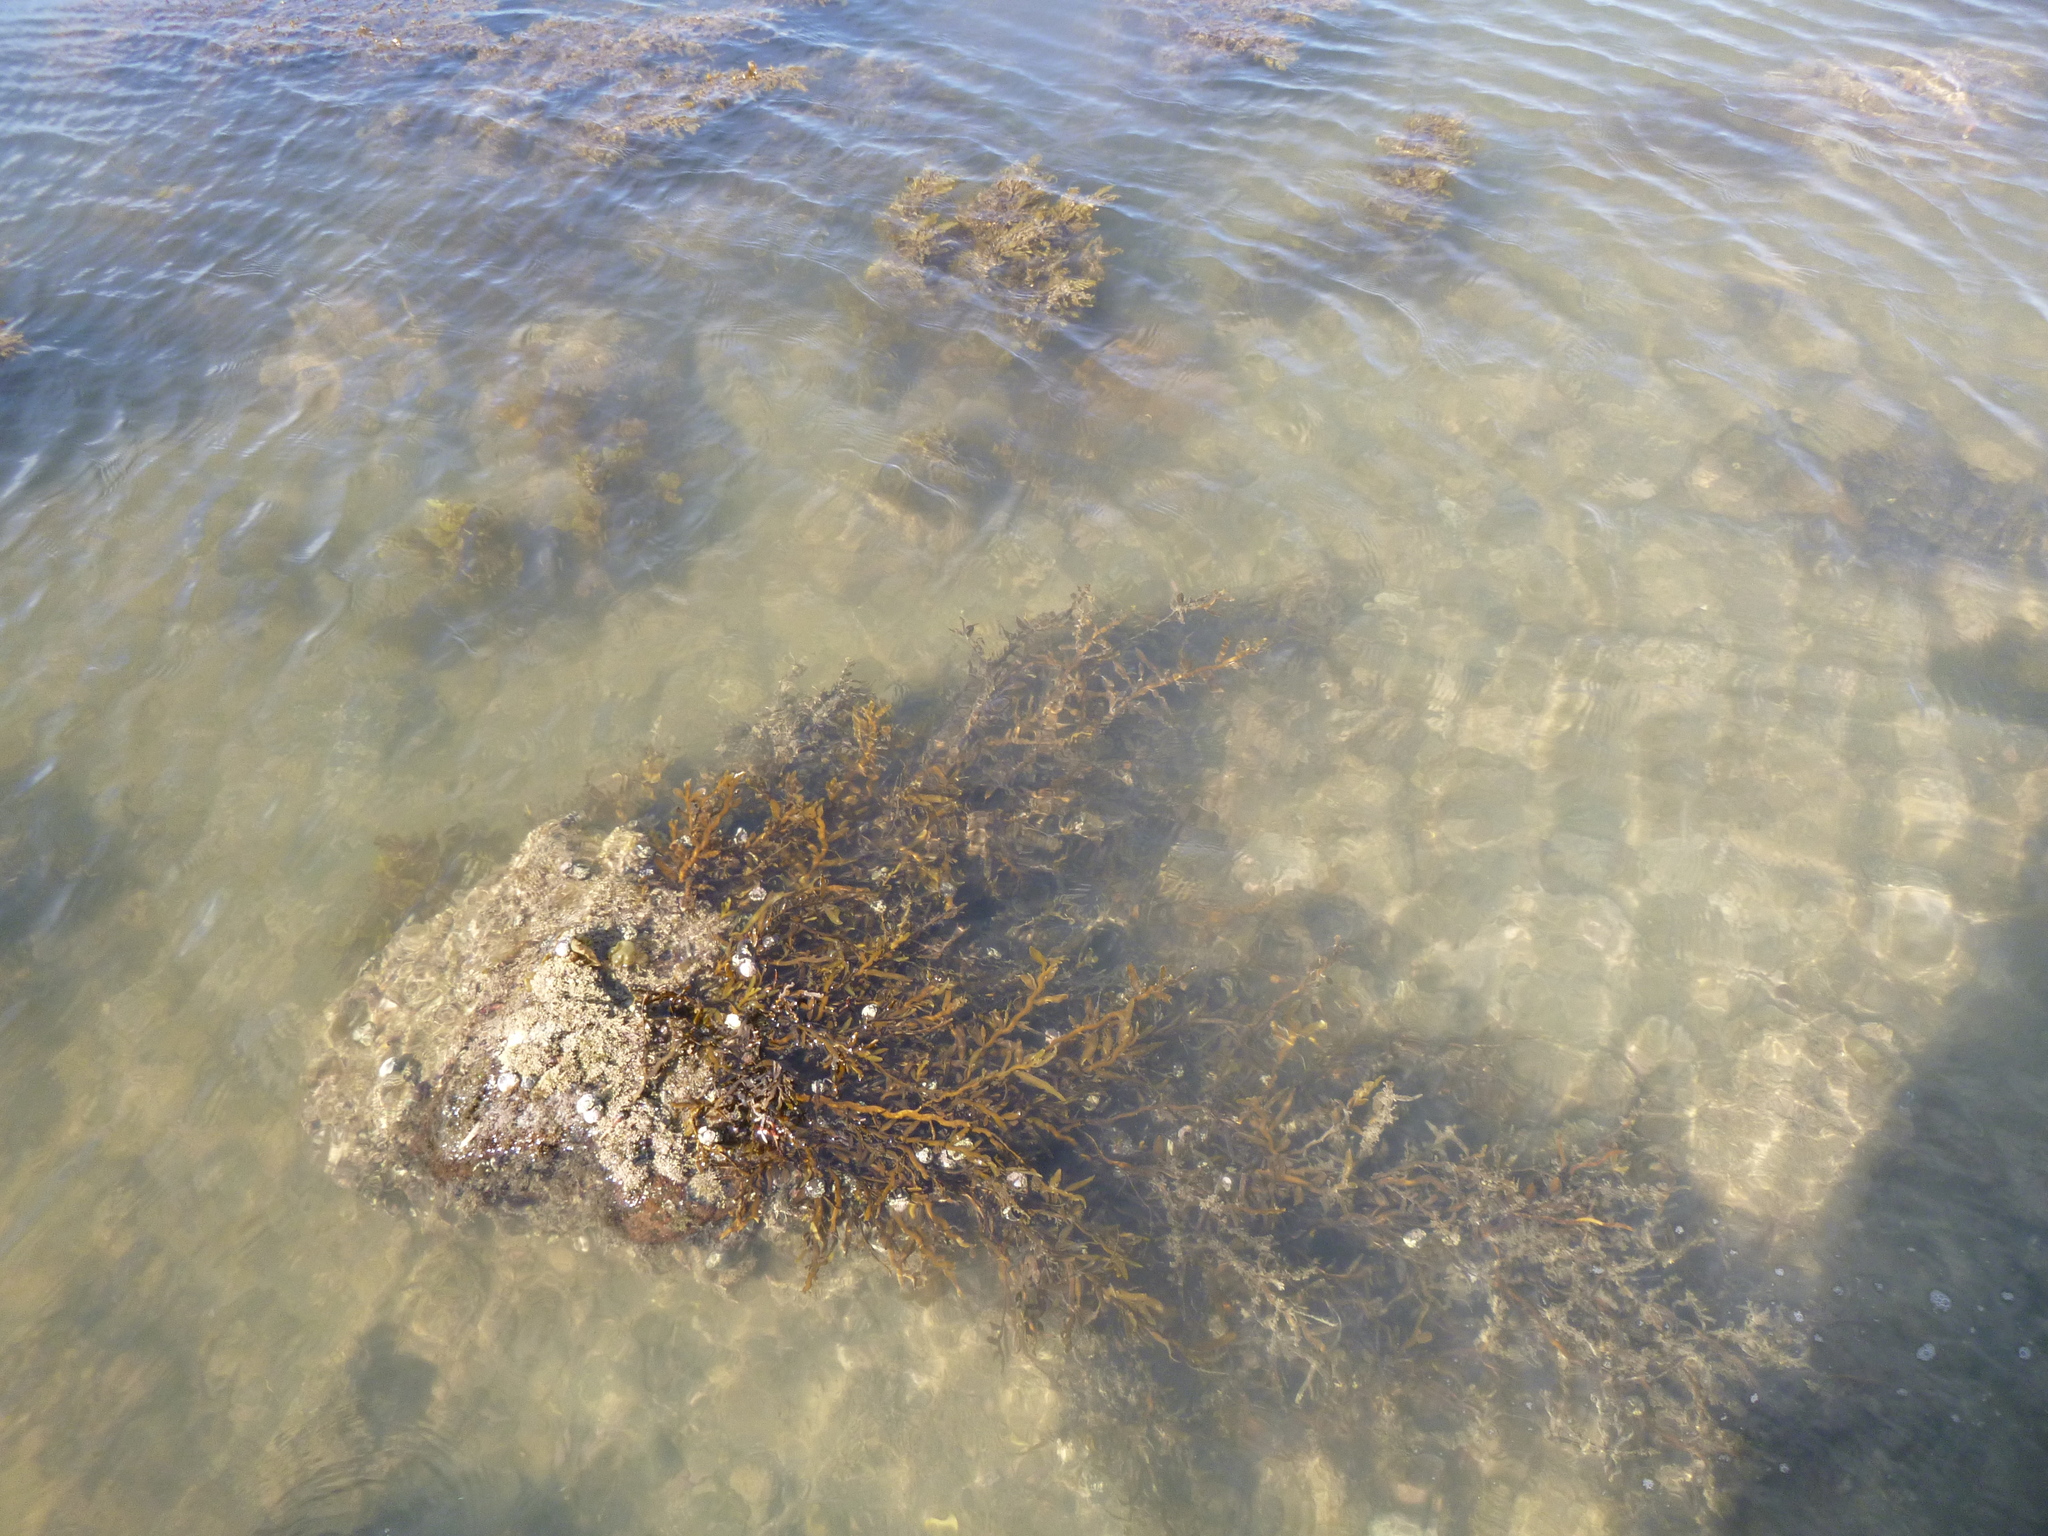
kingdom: Chromista
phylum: Ochrophyta
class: Phaeophyceae
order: Fucales
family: Sargassaceae
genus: Carpophyllum
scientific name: Carpophyllum maschalocarpum
